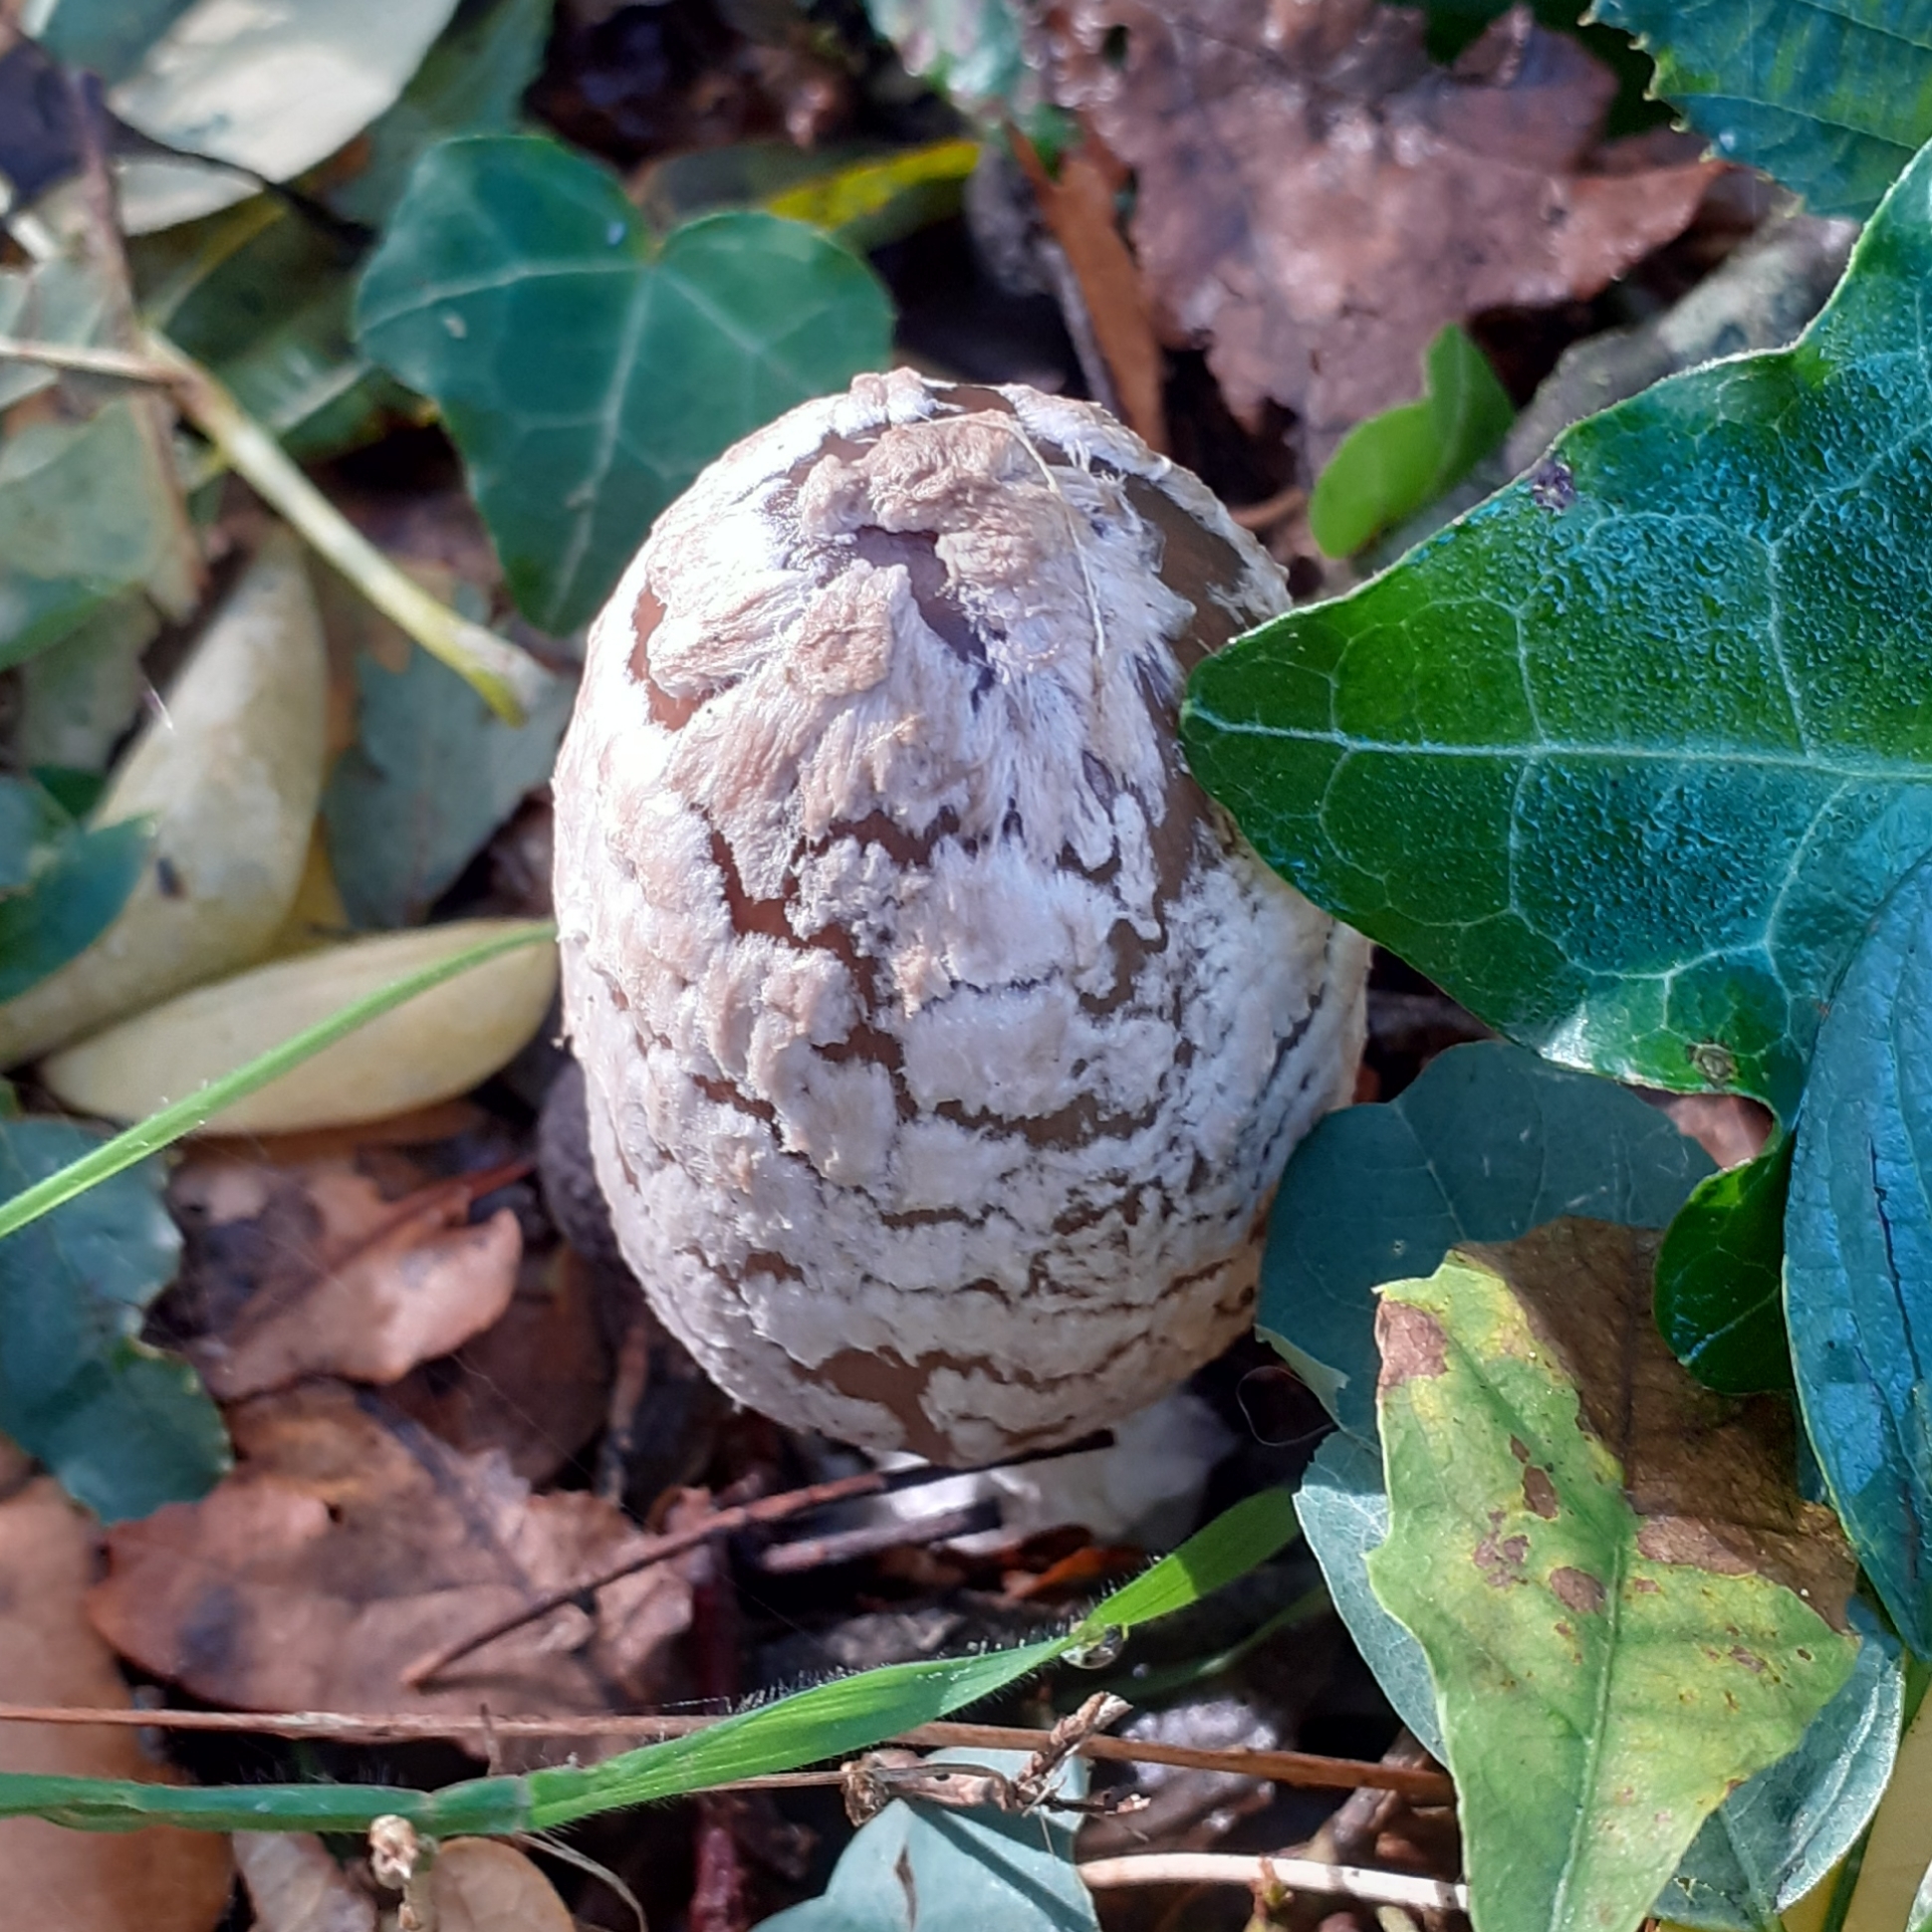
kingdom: Fungi
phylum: Basidiomycota
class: Agaricomycetes
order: Agaricales
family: Psathyrellaceae
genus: Coprinopsis
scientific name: Coprinopsis picacea
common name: Magpie inkcap
